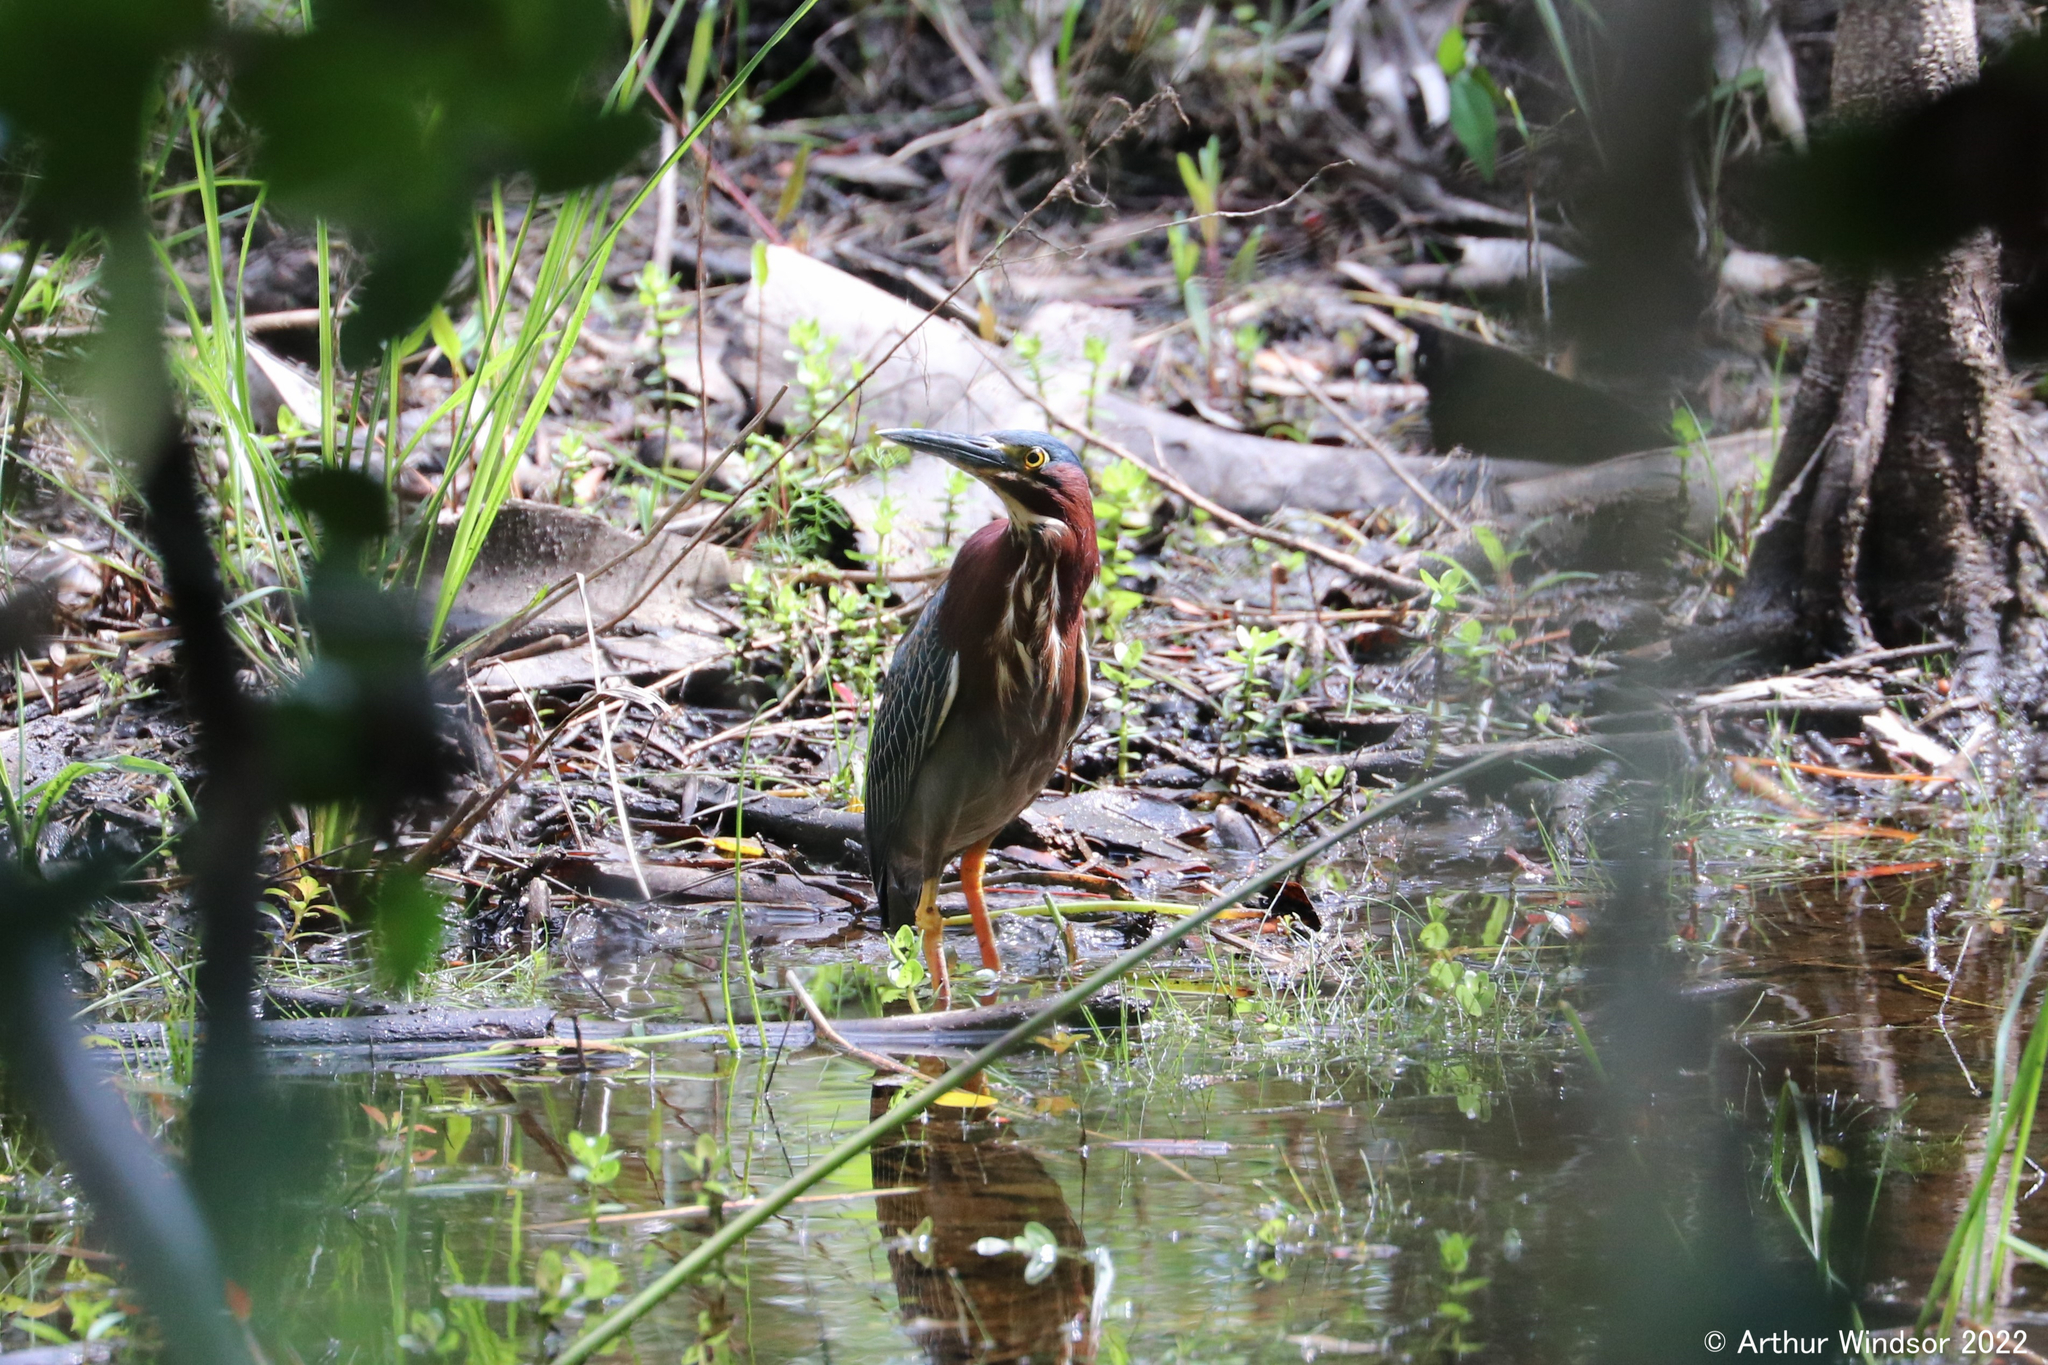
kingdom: Animalia
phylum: Chordata
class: Aves
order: Pelecaniformes
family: Ardeidae
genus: Butorides
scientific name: Butorides virescens
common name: Green heron
